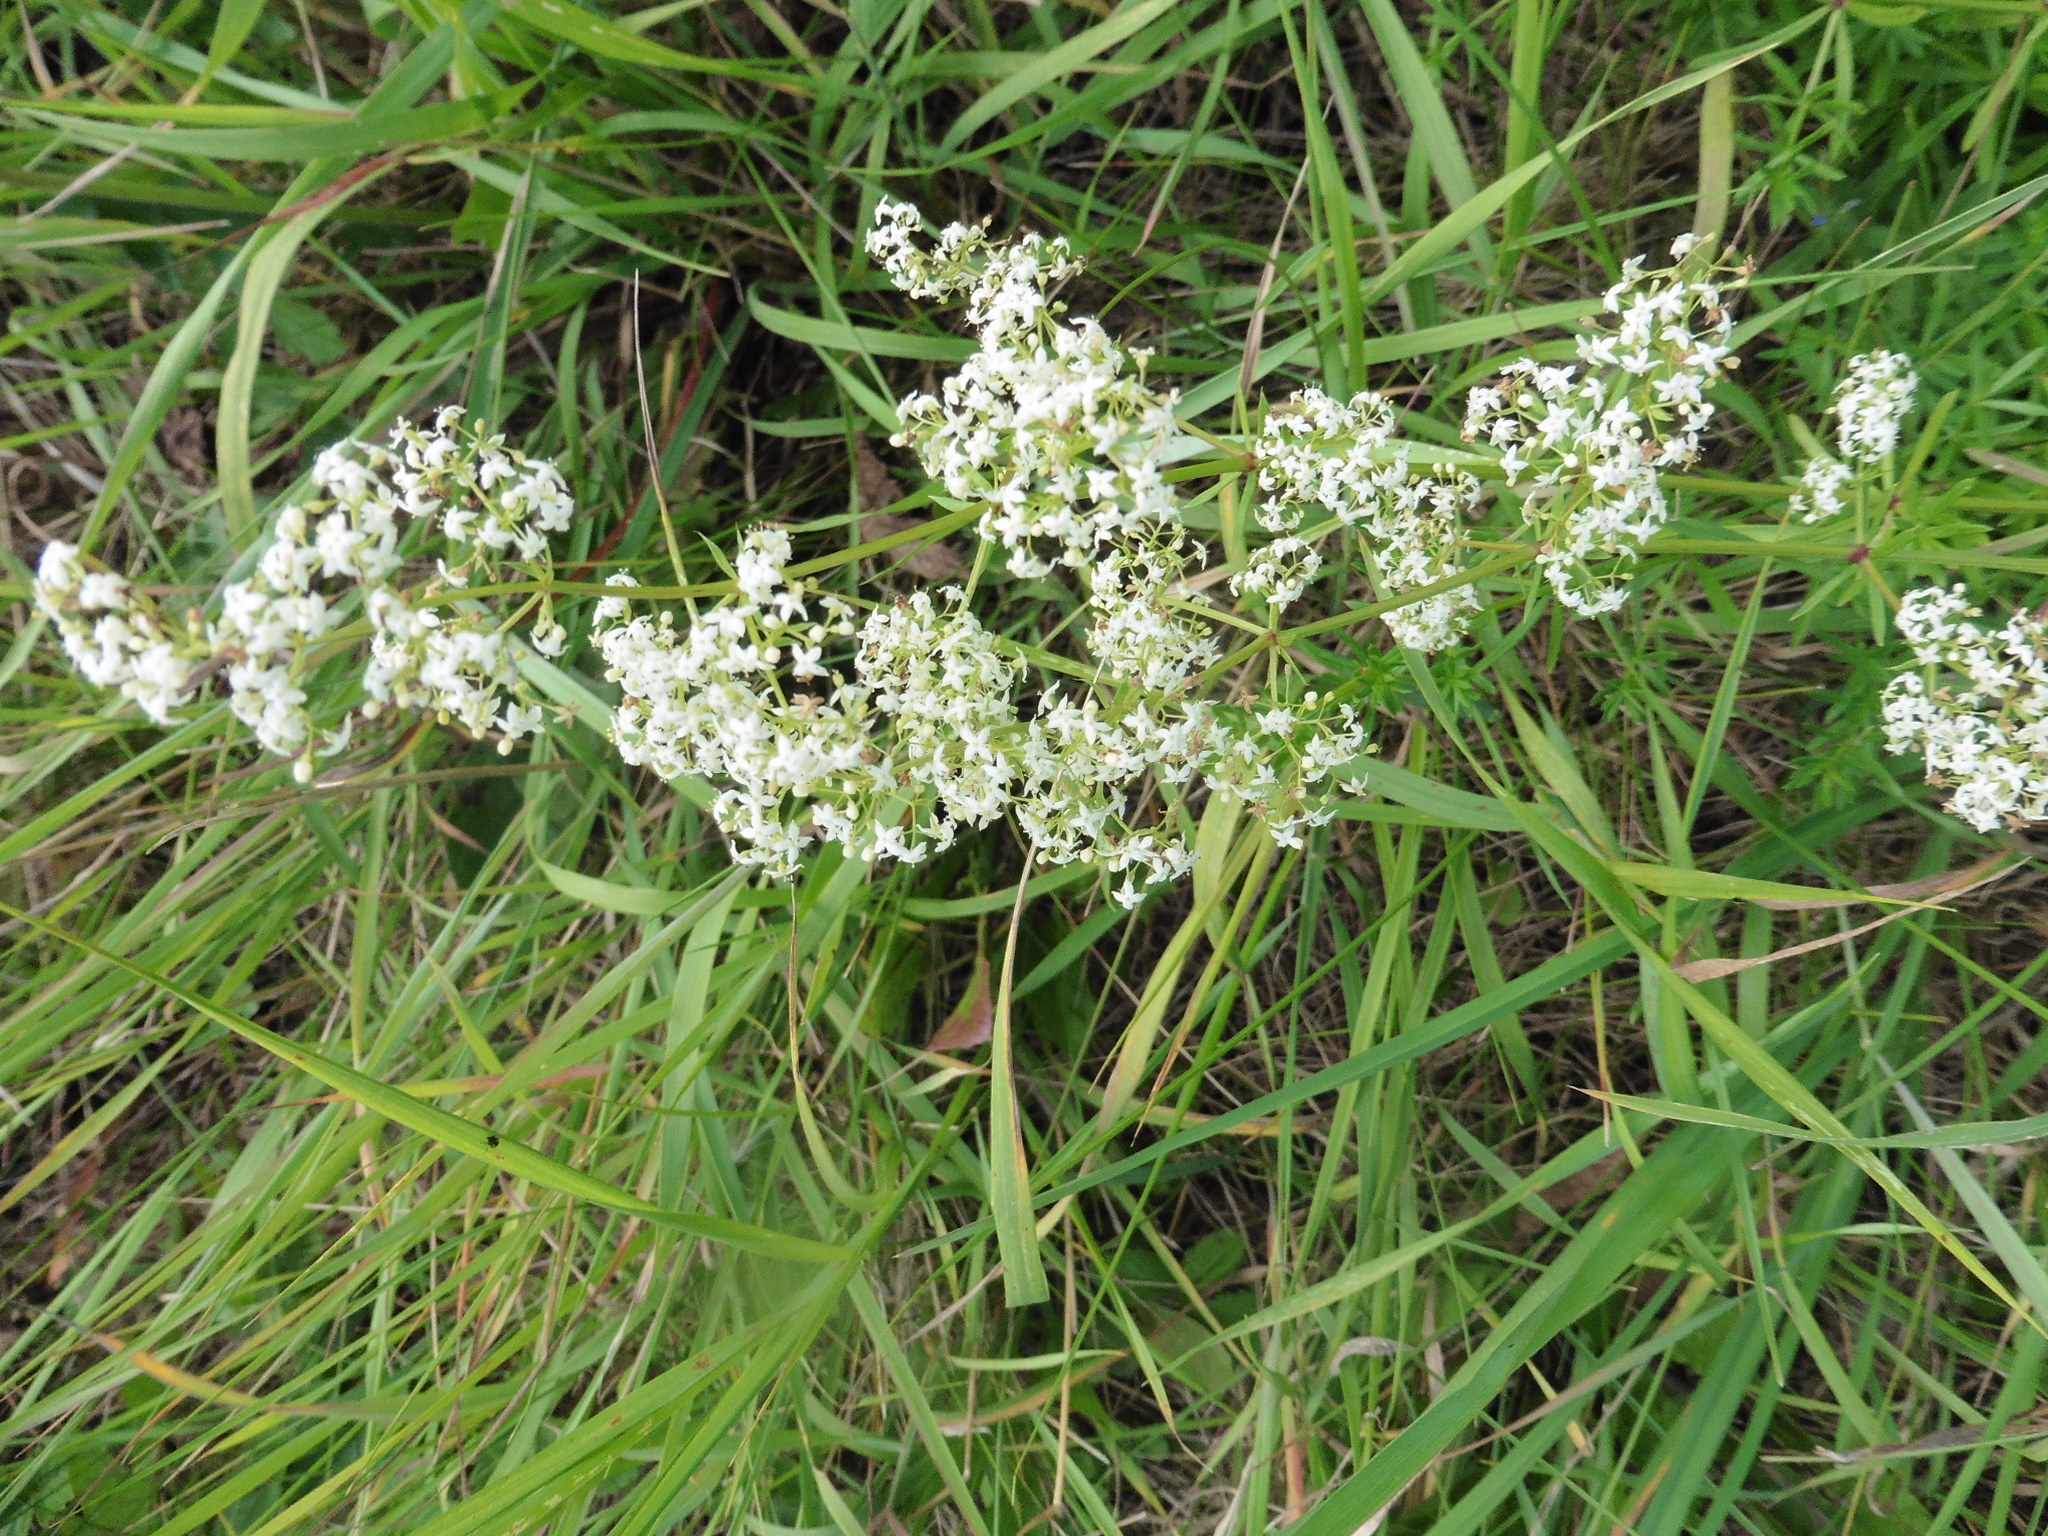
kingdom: Plantae
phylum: Tracheophyta
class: Magnoliopsida
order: Gentianales
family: Rubiaceae
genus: Galium
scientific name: Galium mollugo
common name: Hedge bedstraw
